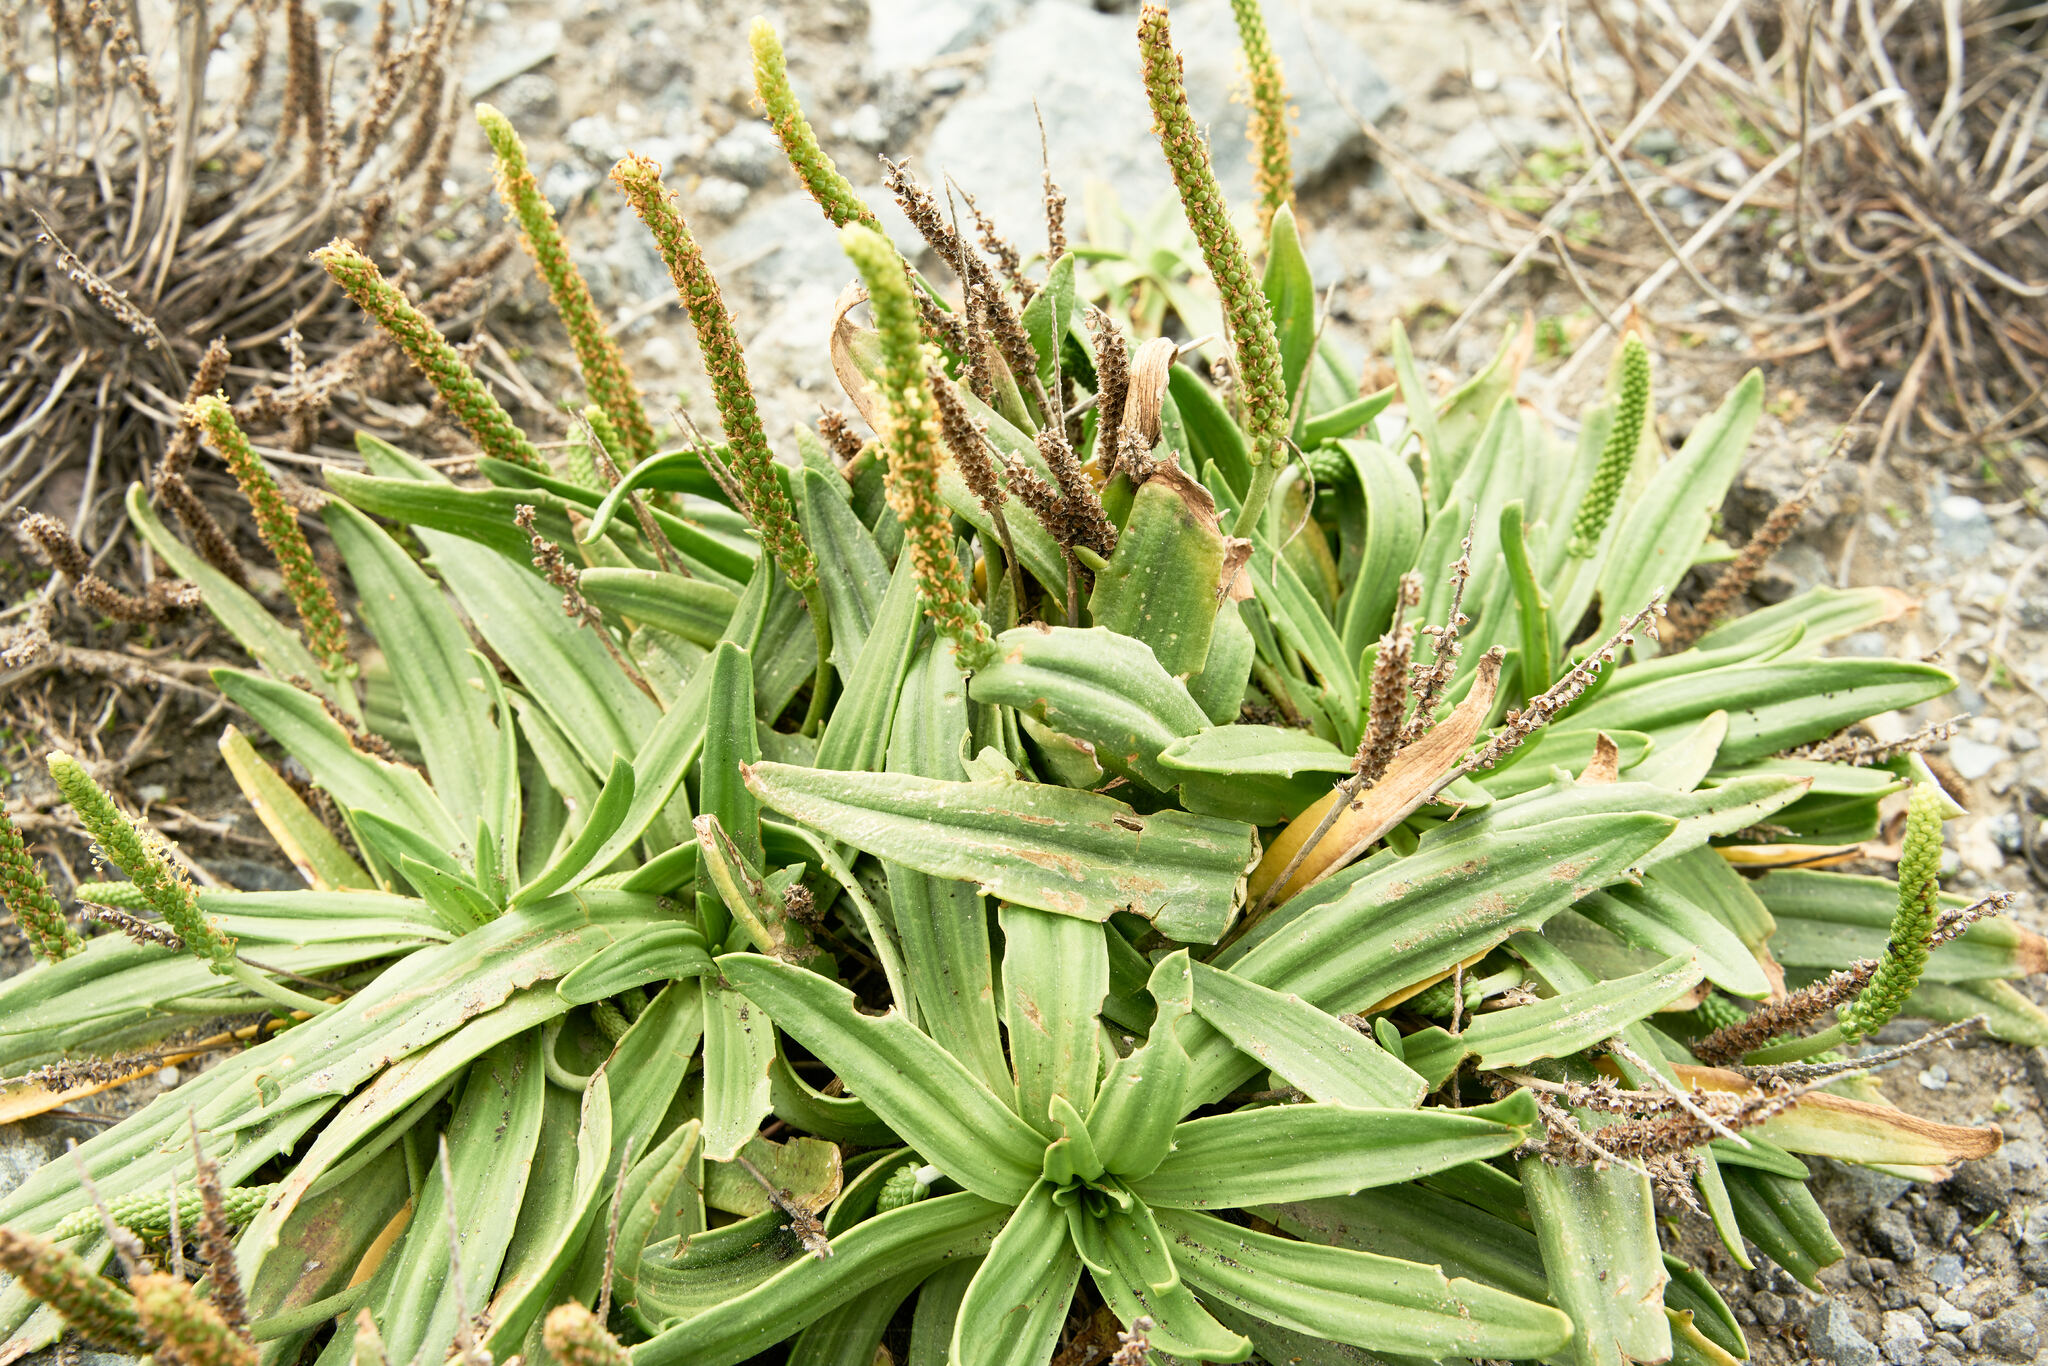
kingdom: Plantae
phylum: Tracheophyta
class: Magnoliopsida
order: Lamiales
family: Plantaginaceae
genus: Plantago
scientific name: Plantago maritima
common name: Sea plantain
